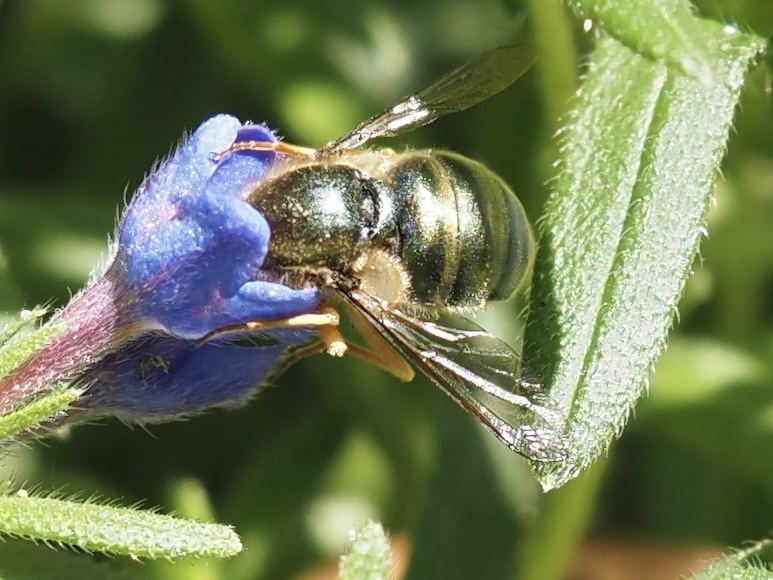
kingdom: Animalia
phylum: Arthropoda
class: Insecta
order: Diptera
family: Acroceridae
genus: Eulonchus
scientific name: Eulonchus sapphirinus
